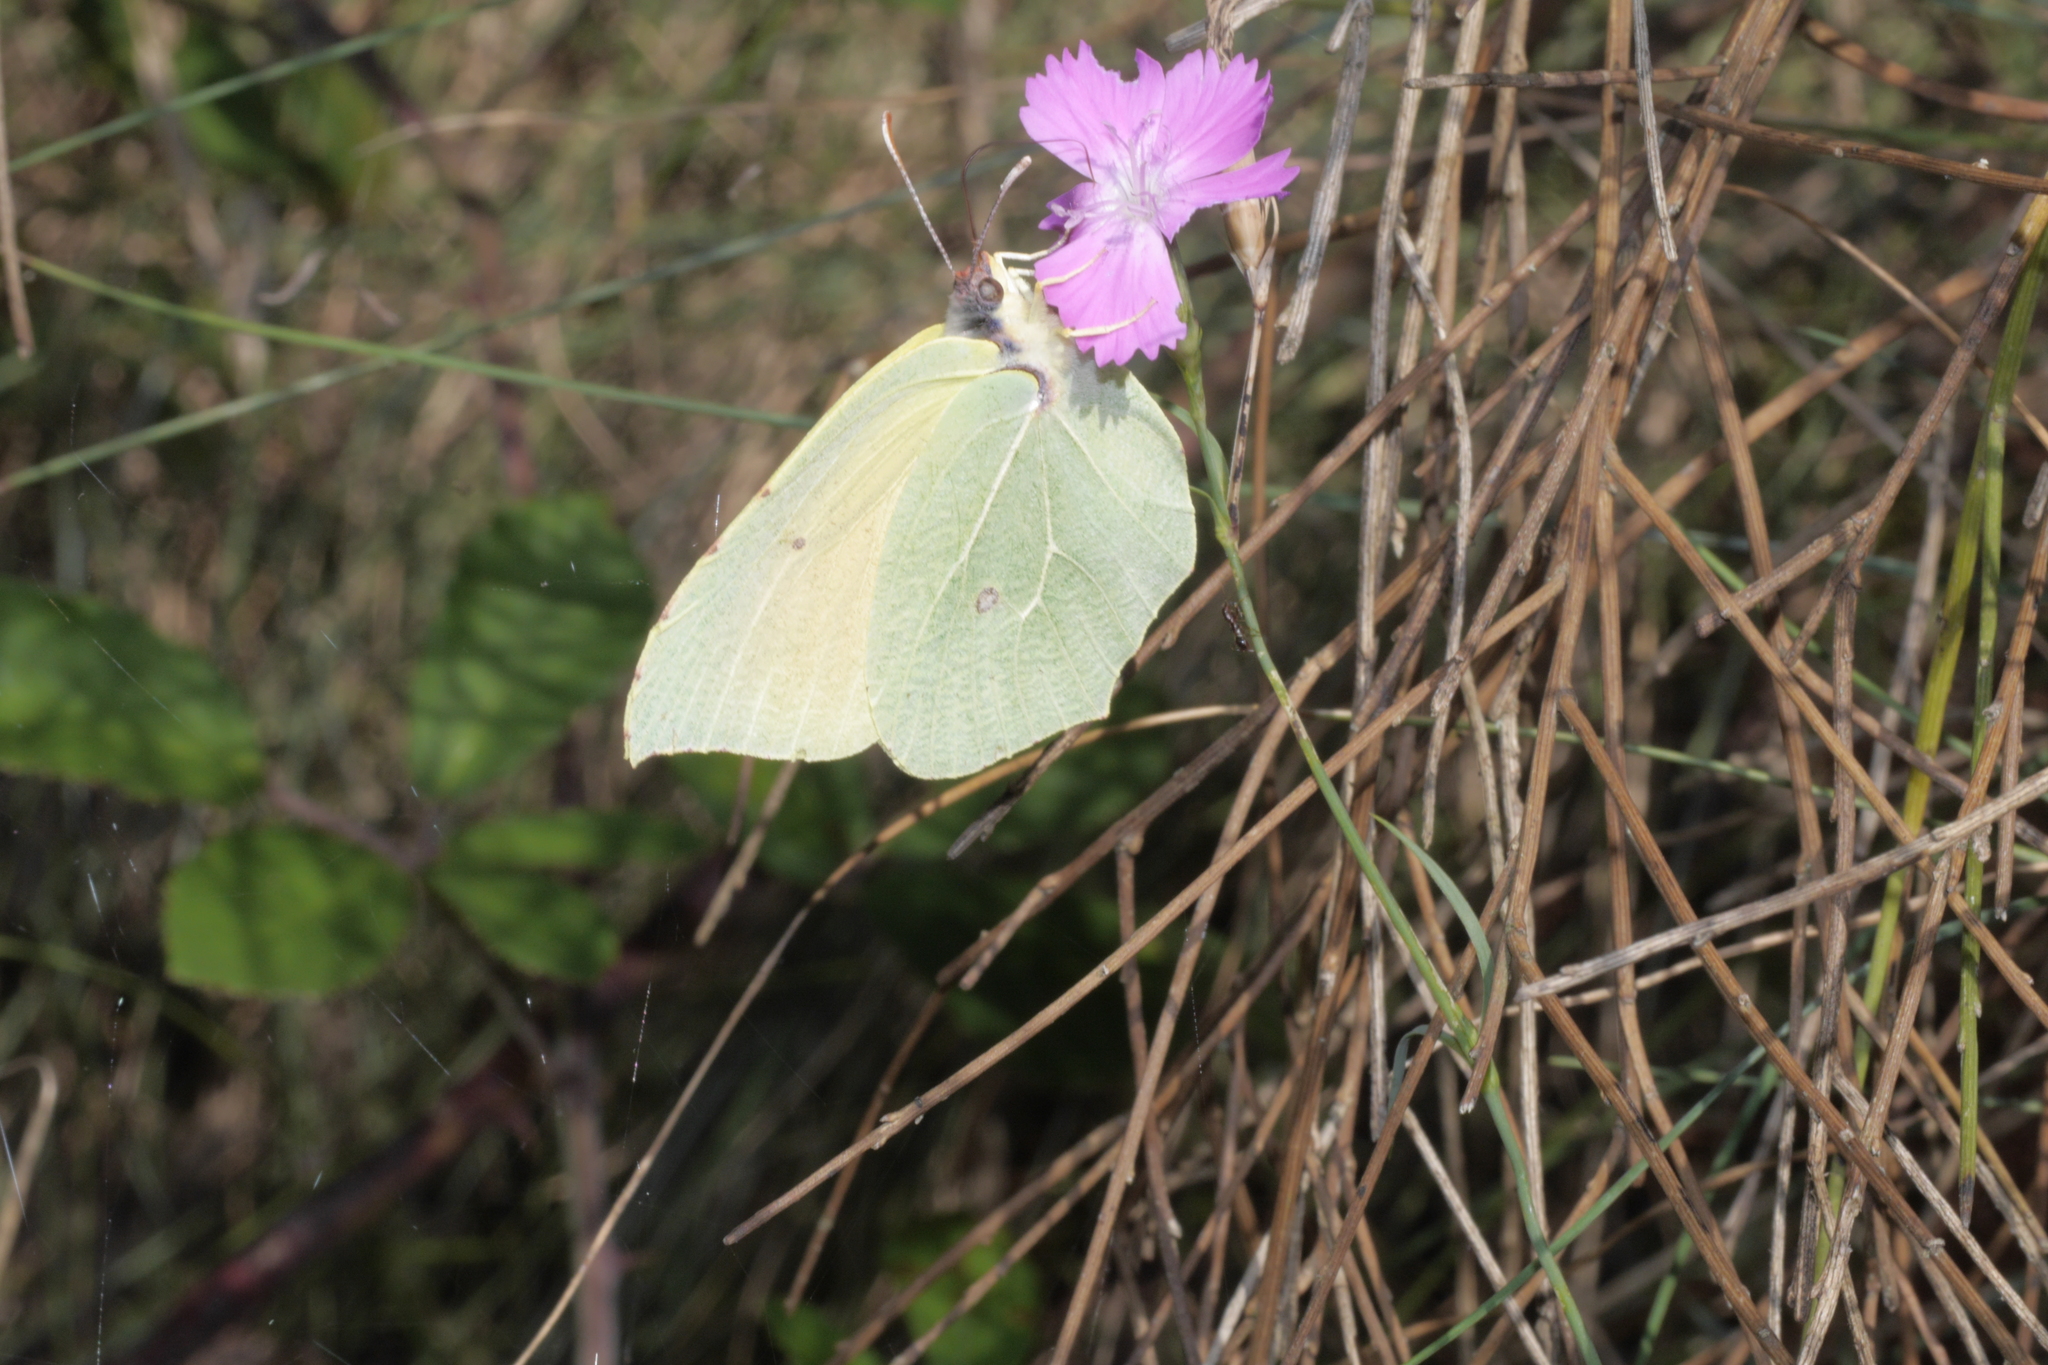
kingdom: Animalia
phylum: Arthropoda
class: Insecta
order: Lepidoptera
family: Pieridae
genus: Gonepteryx
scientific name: Gonepteryx cleopatra
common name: Cleopatra
